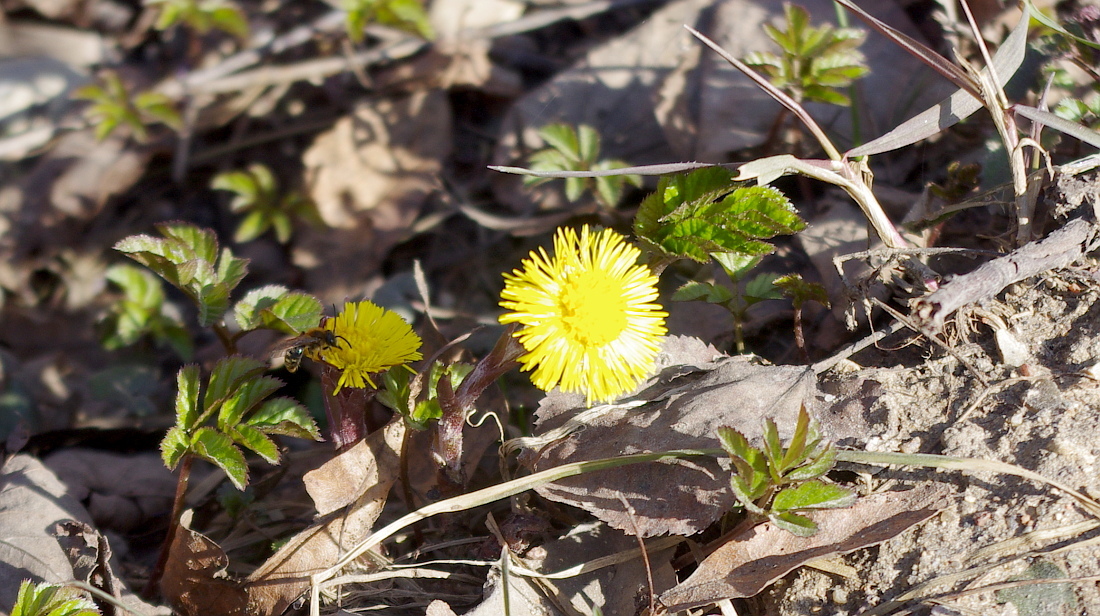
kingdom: Plantae
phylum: Tracheophyta
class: Magnoliopsida
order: Asterales
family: Asteraceae
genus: Tussilago
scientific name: Tussilago farfara
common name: Coltsfoot
